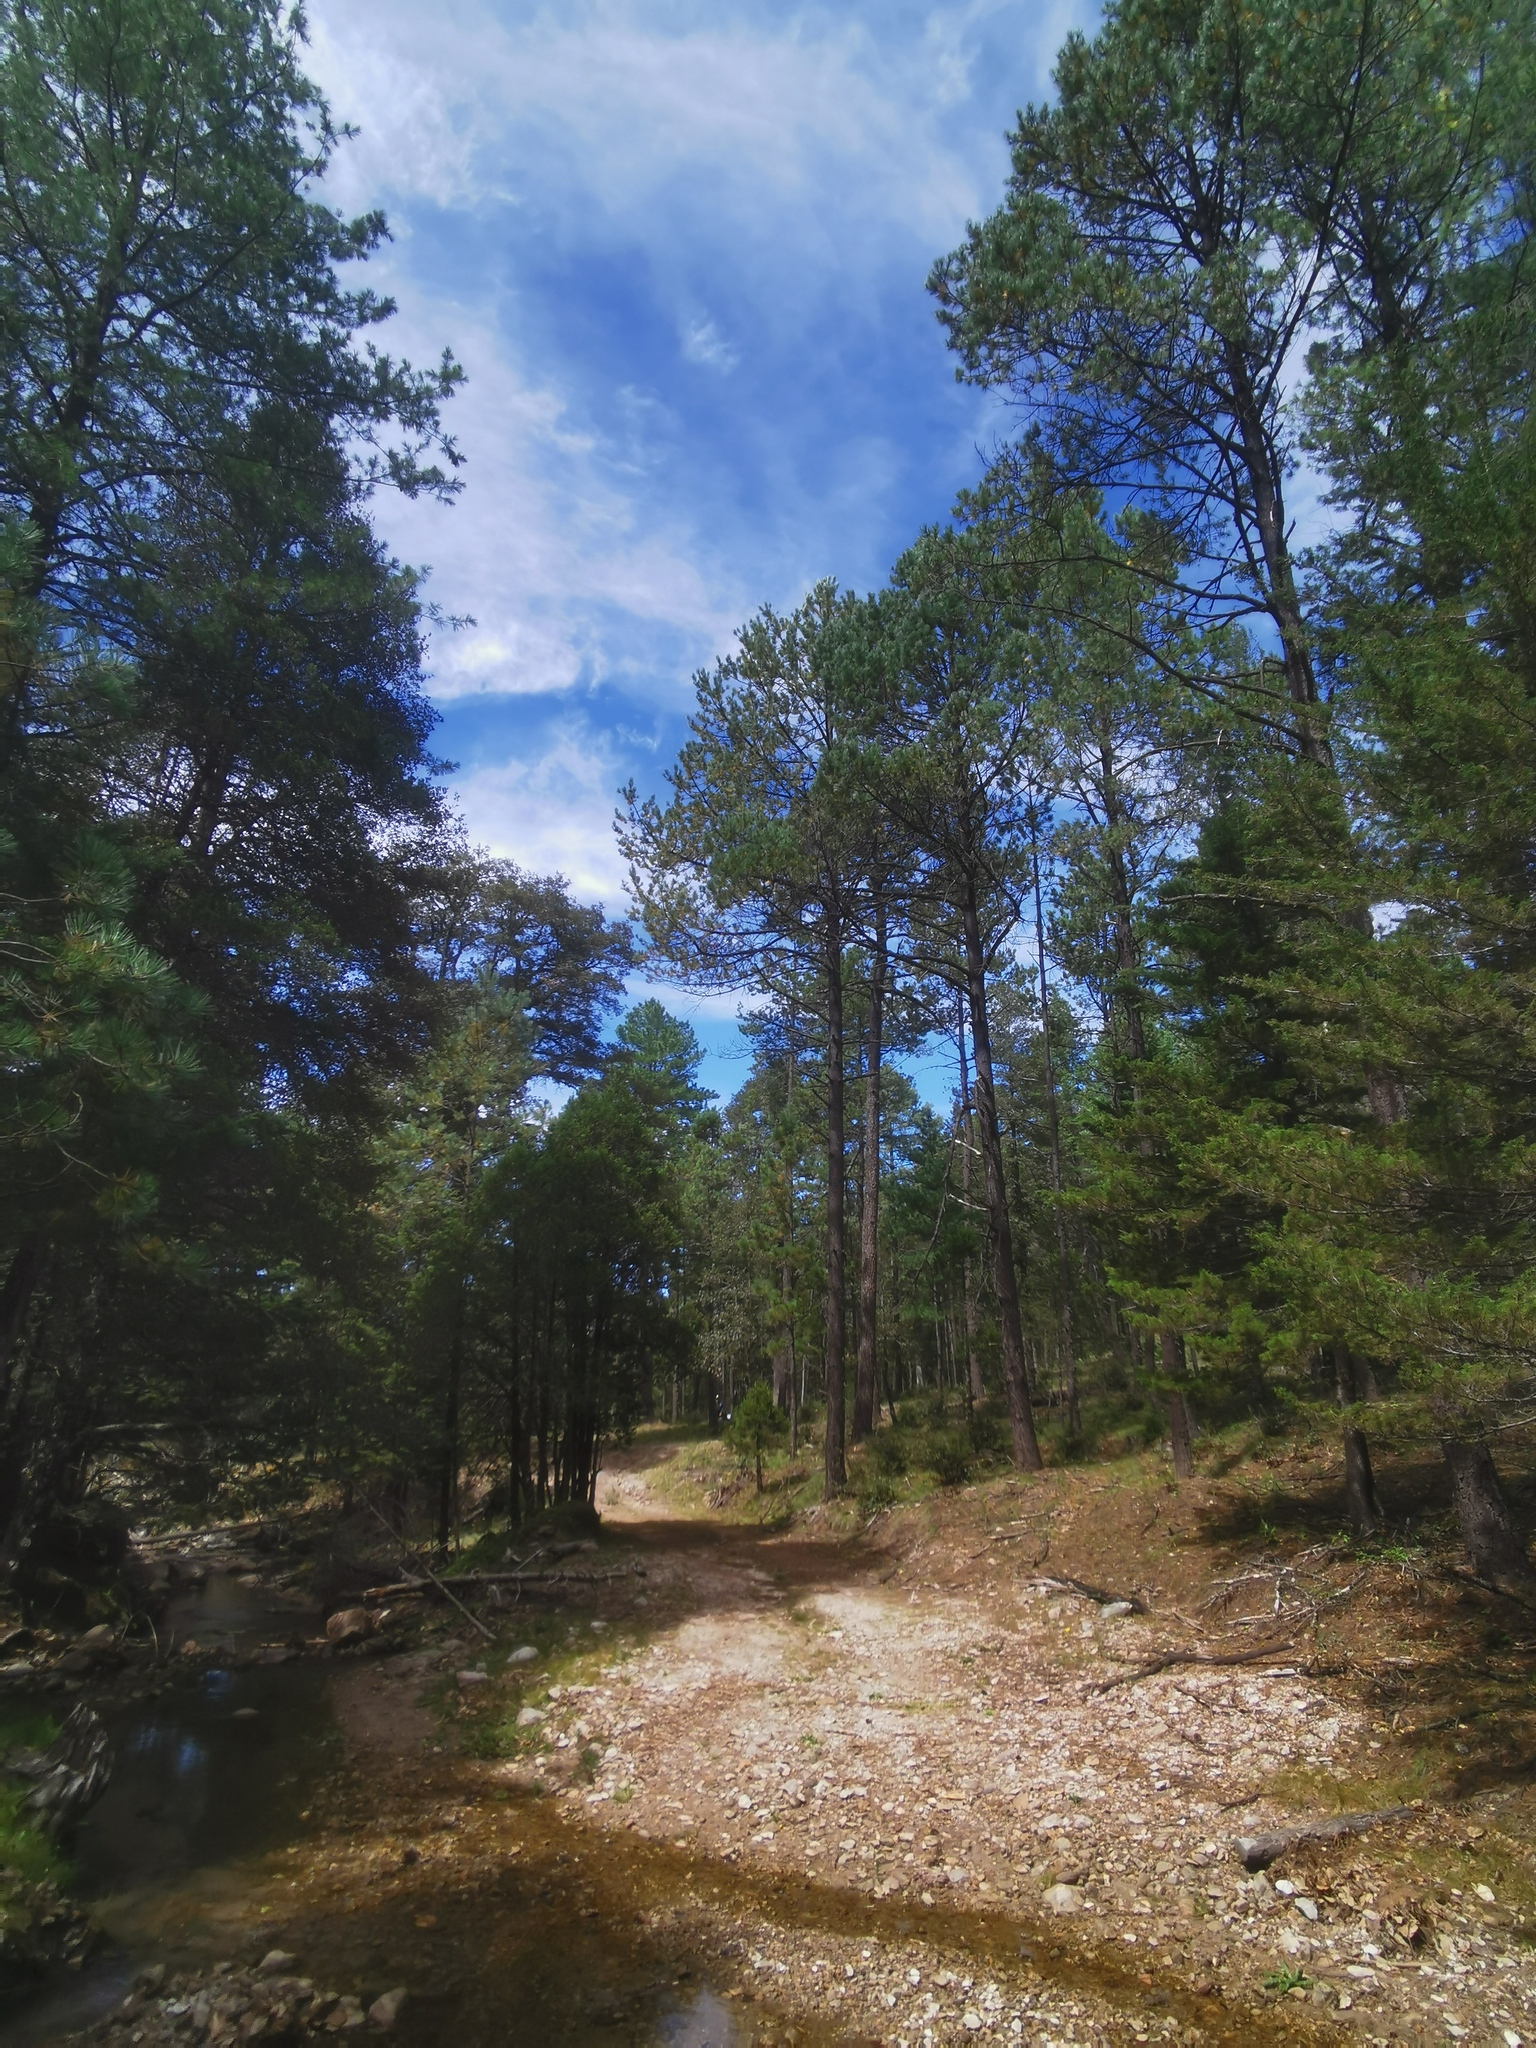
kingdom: Plantae
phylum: Tracheophyta
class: Pinopsida
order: Pinales
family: Pinaceae
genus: Pinus
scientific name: Pinus arizonica
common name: Arizona pine
